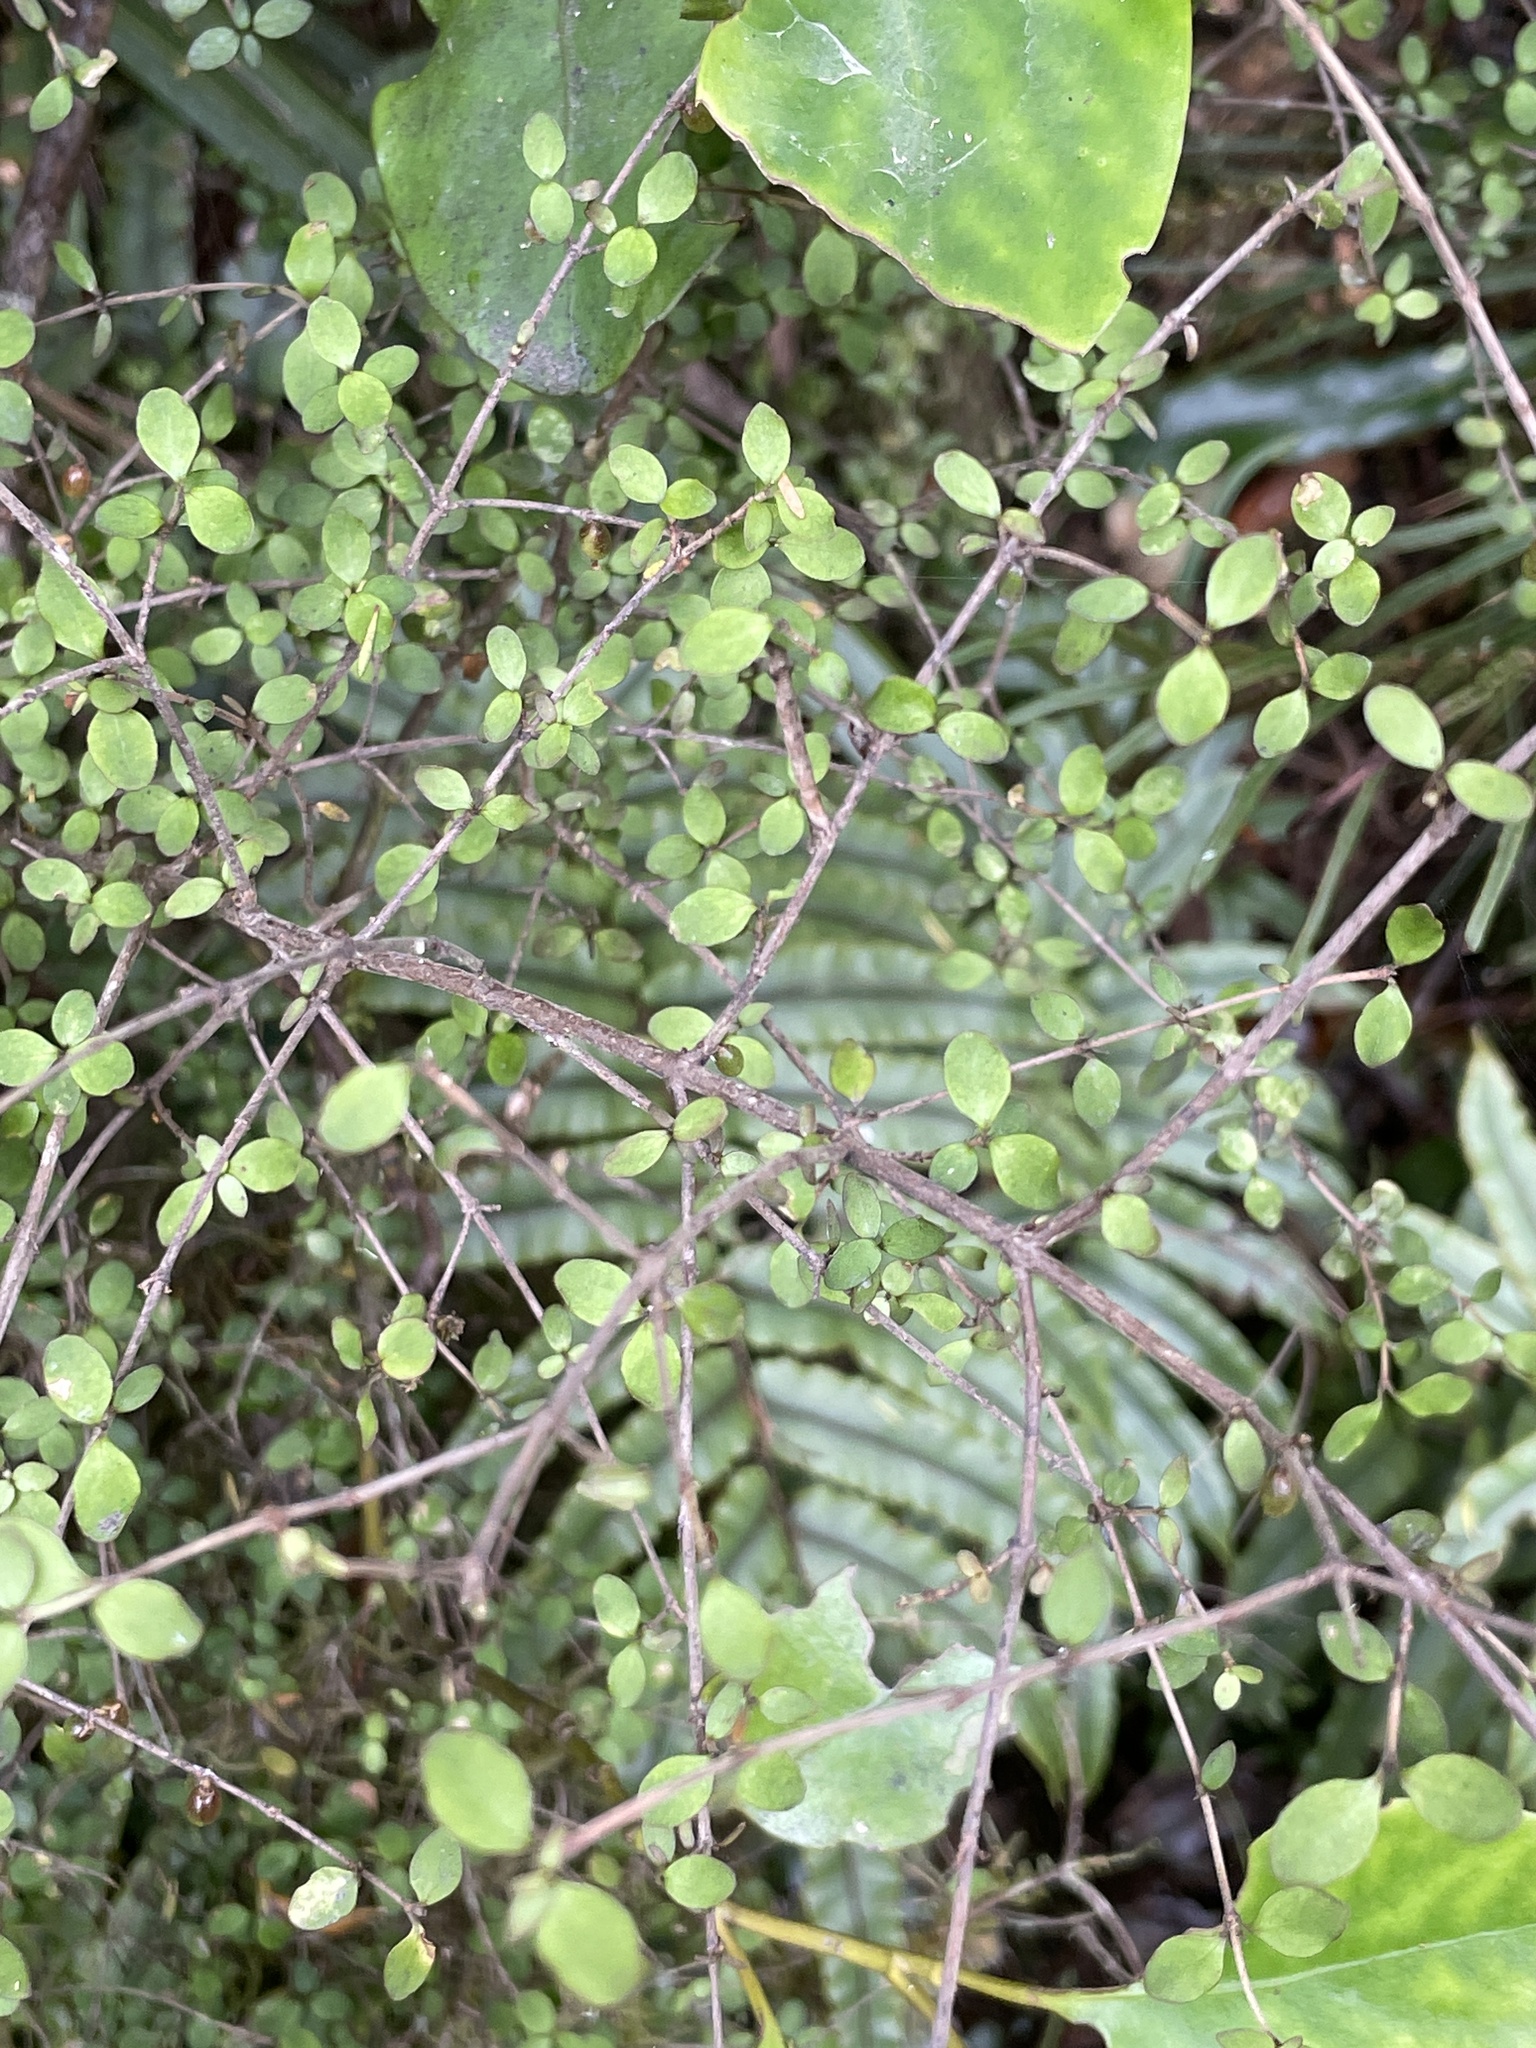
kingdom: Plantae
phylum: Tracheophyta
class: Magnoliopsida
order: Gentianales
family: Rubiaceae
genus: Coprosma
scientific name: Coprosma rhamnoides
